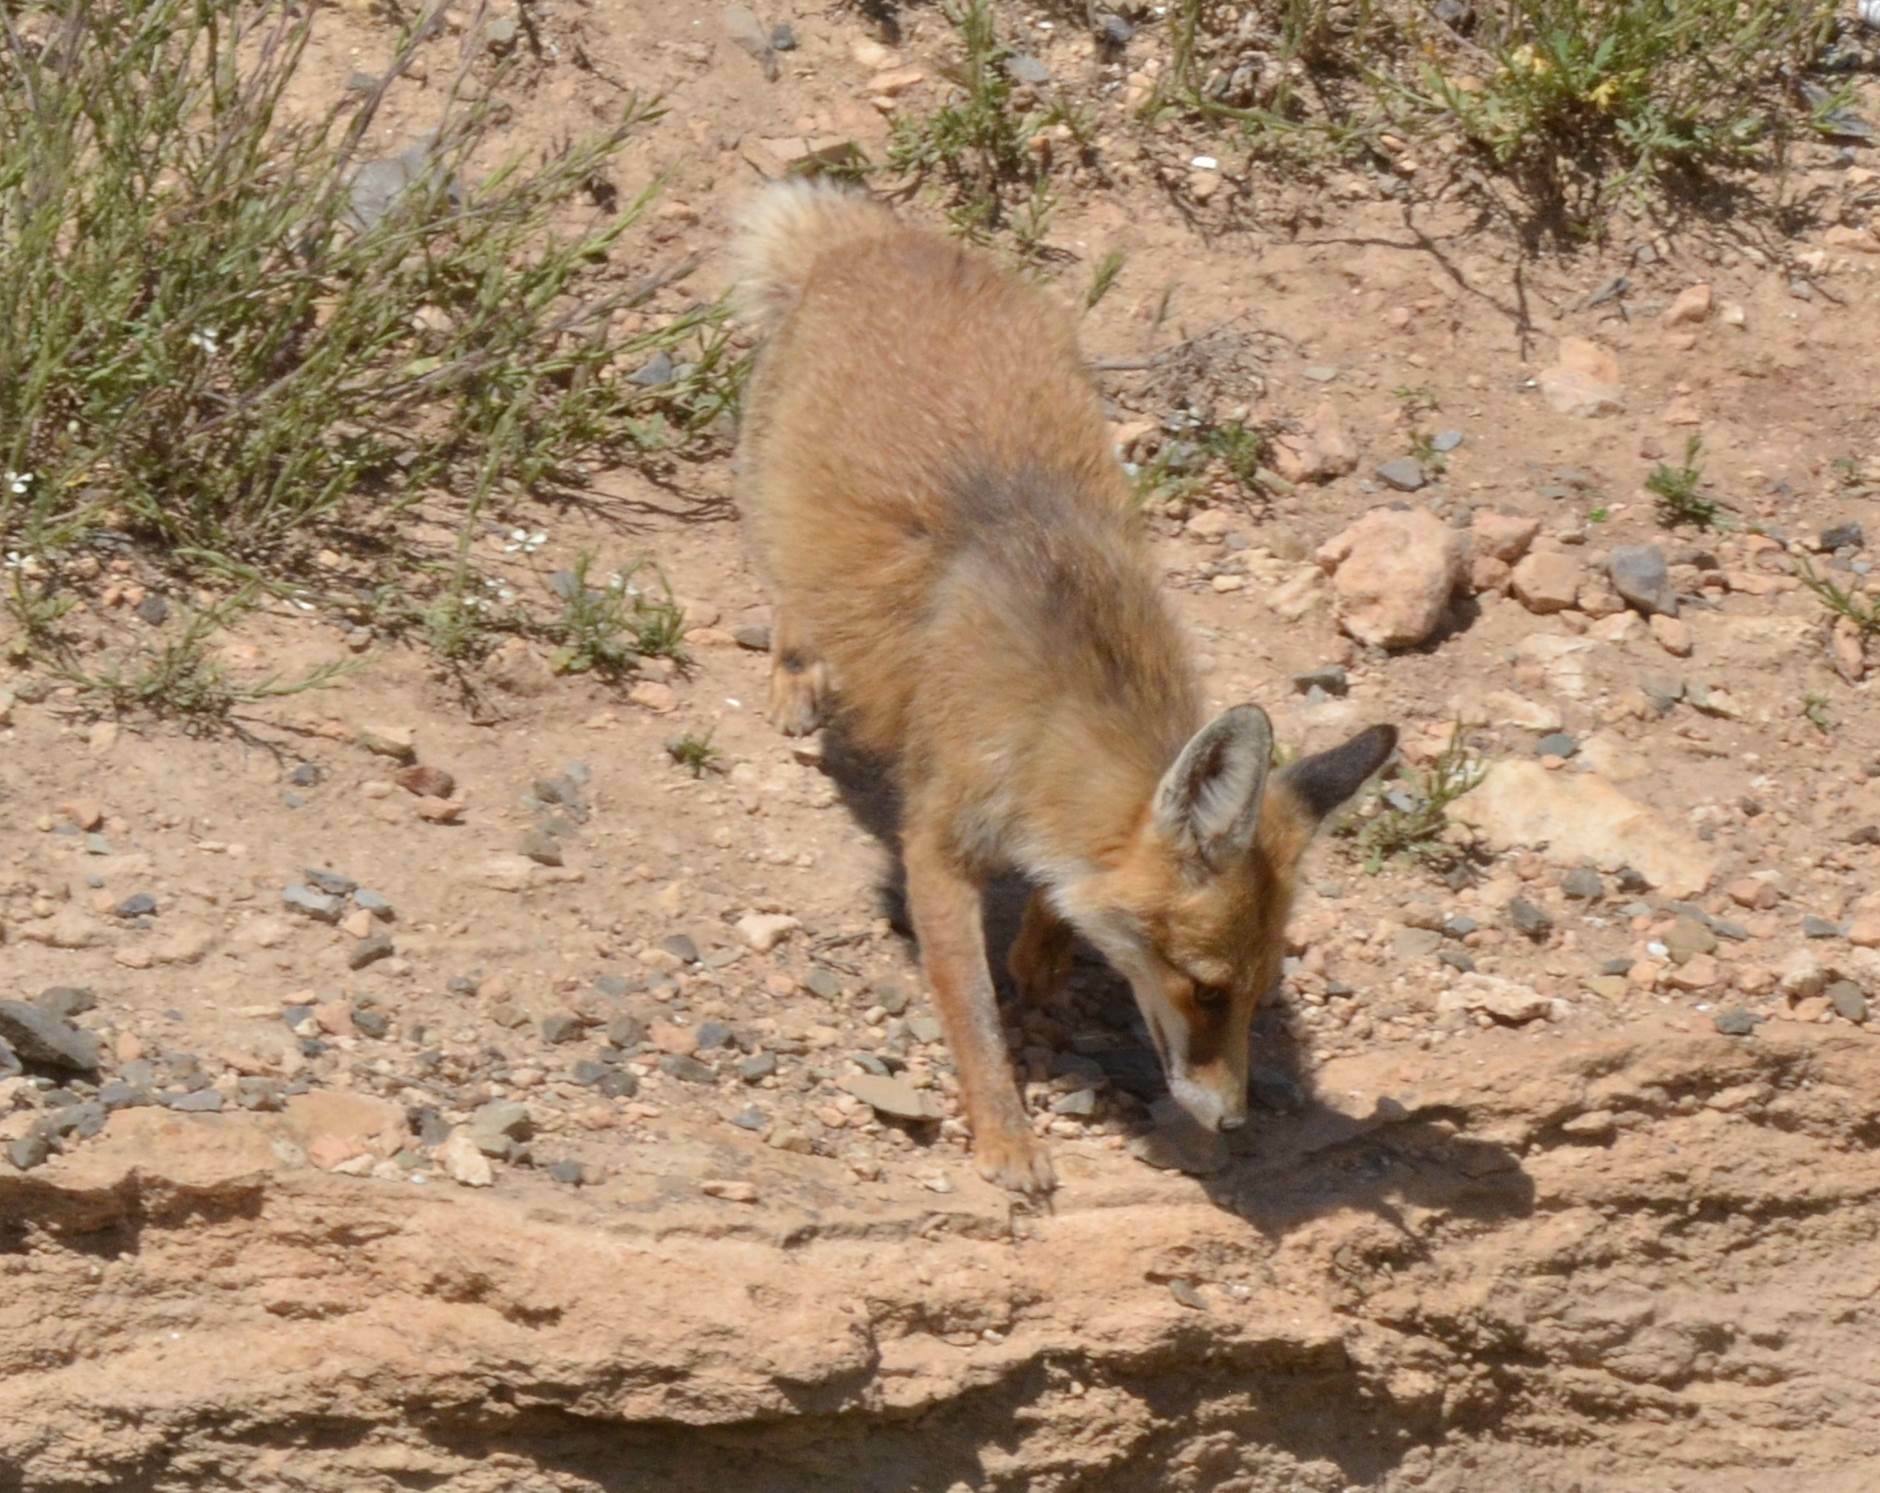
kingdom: Animalia
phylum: Chordata
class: Mammalia
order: Carnivora
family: Canidae
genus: Vulpes
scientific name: Vulpes vulpes
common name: Red fox
